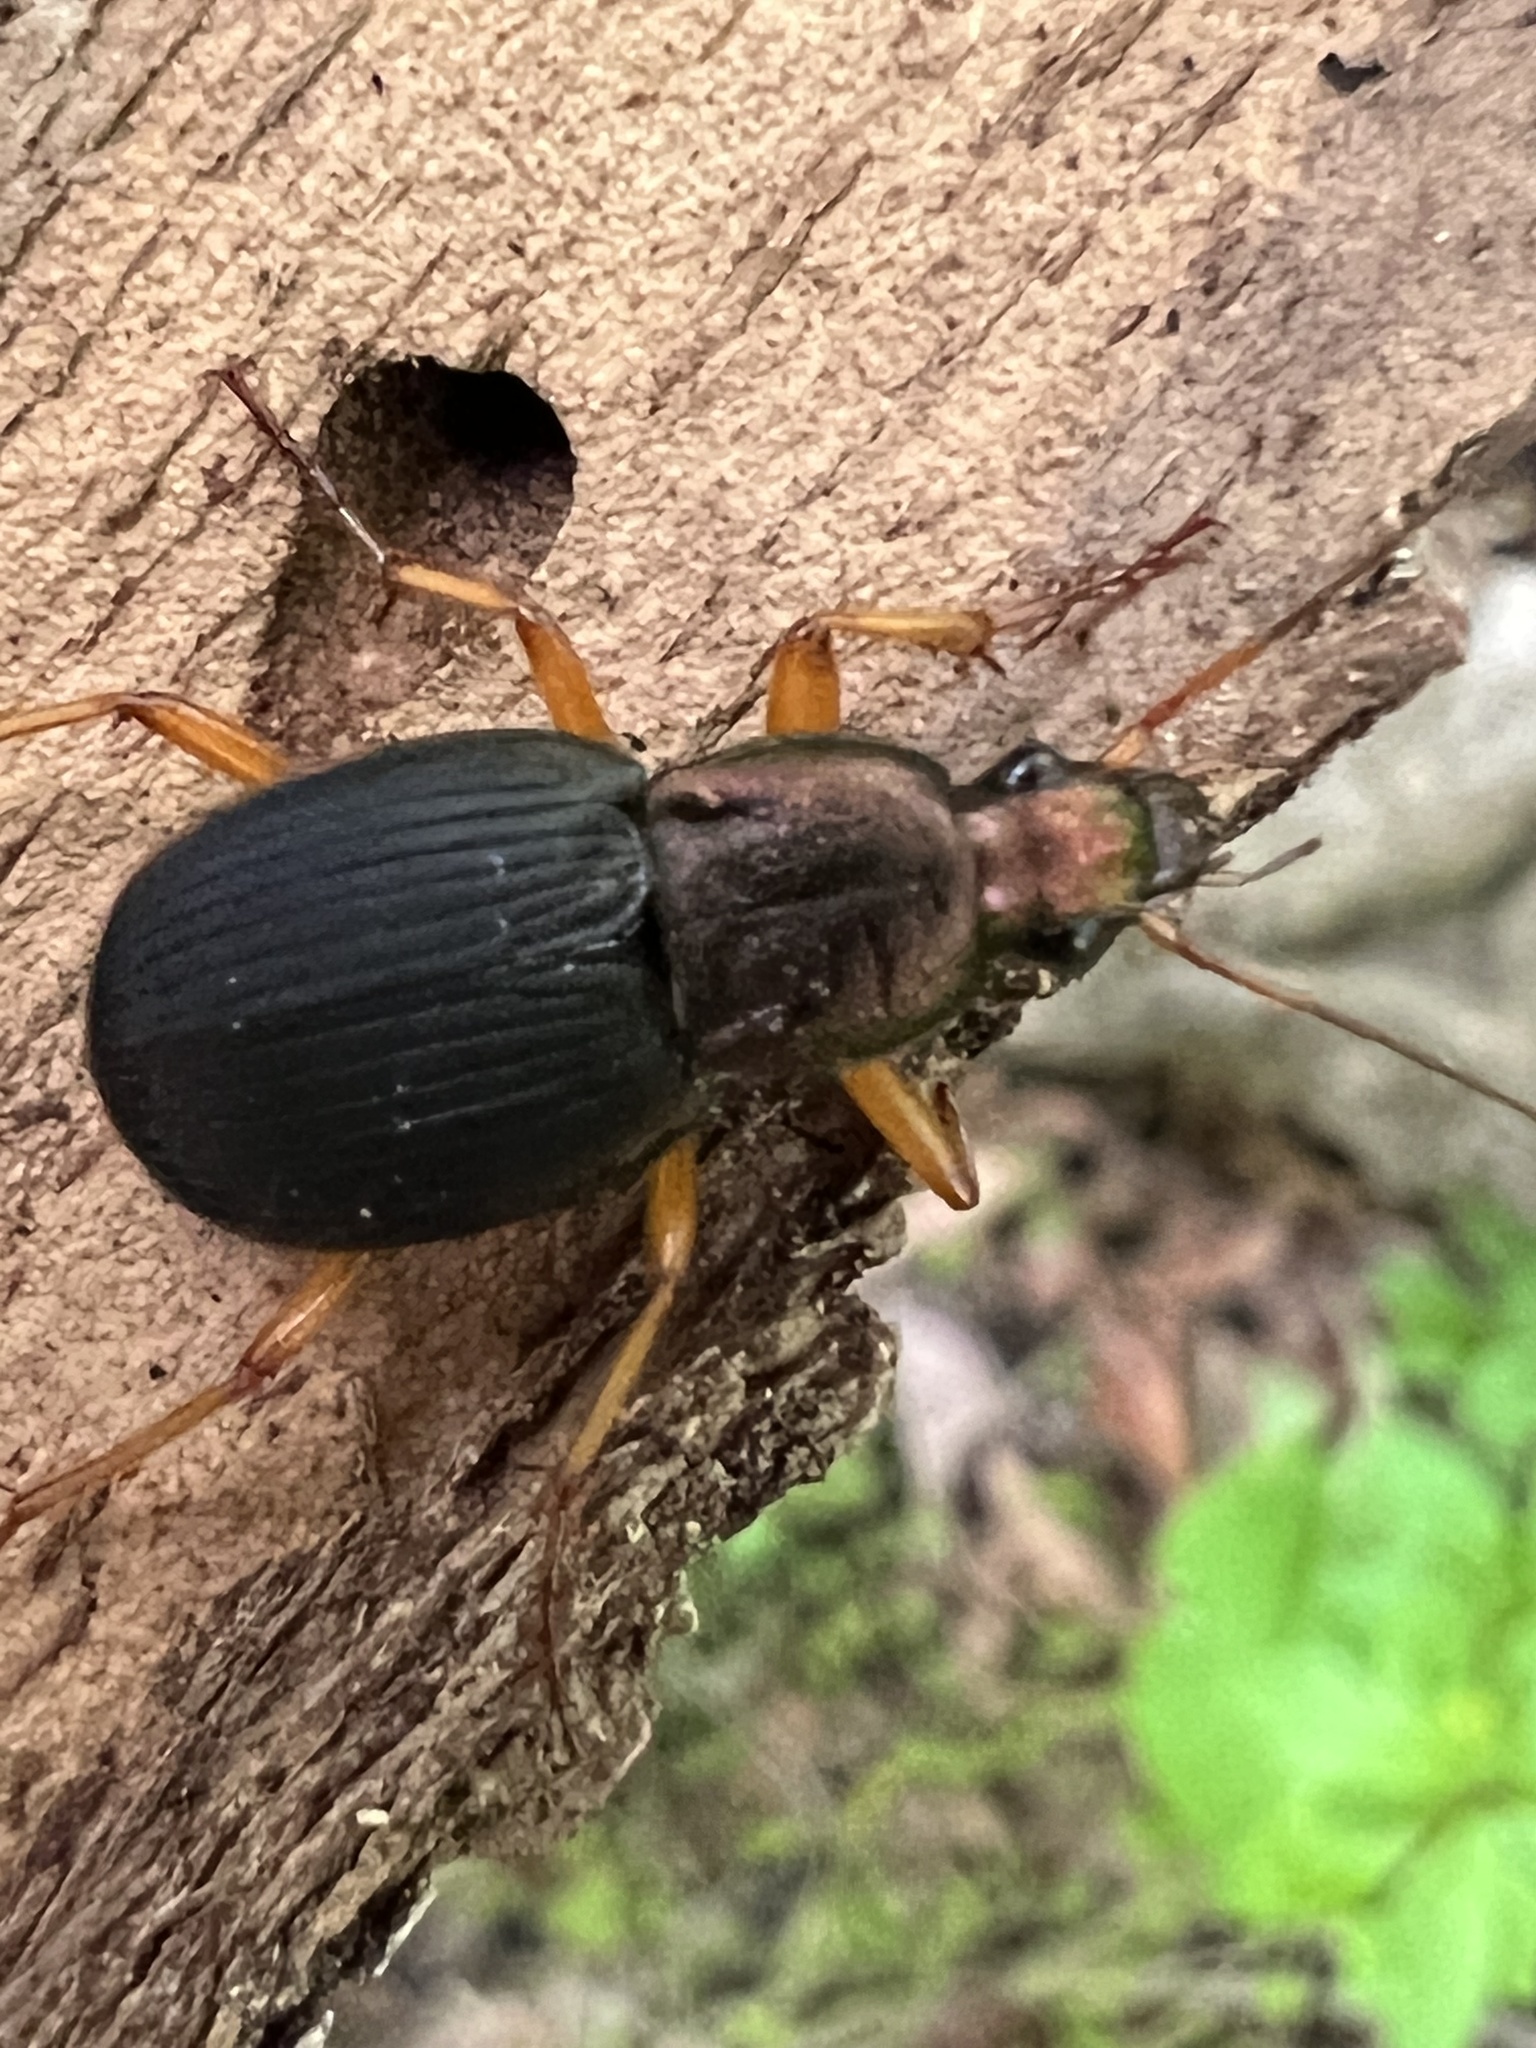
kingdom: Animalia
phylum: Arthropoda
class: Insecta
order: Coleoptera
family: Carabidae
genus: Chlaenius
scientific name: Chlaenius aestivus
